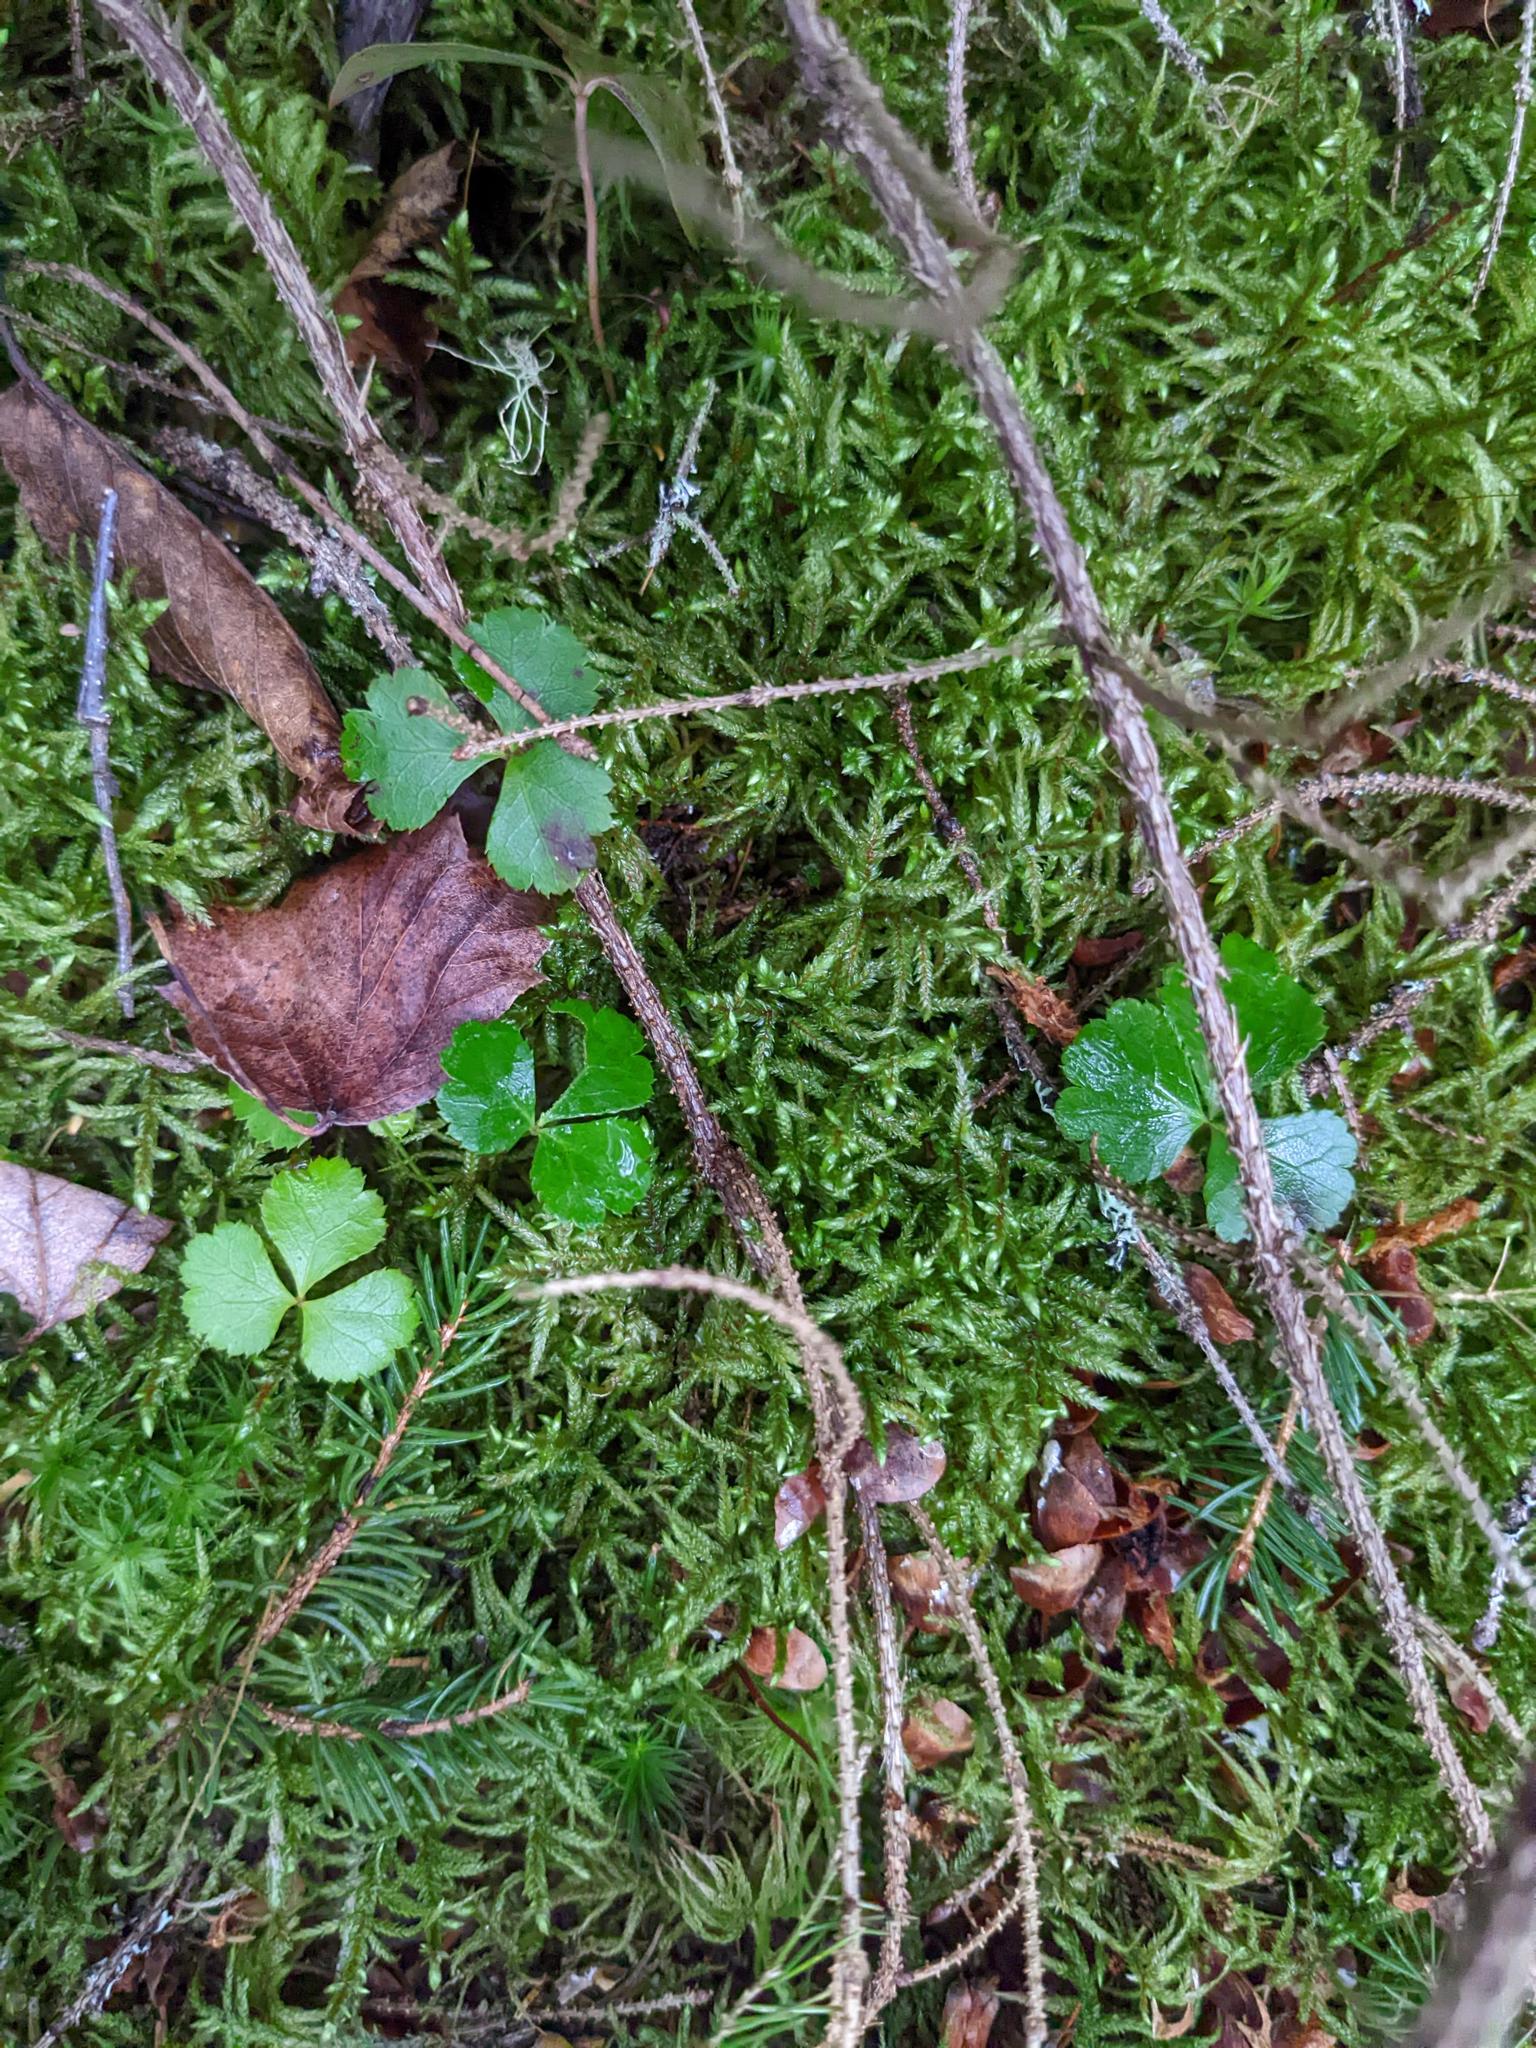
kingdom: Plantae
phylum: Tracheophyta
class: Magnoliopsida
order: Ranunculales
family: Ranunculaceae
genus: Coptis
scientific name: Coptis trifolia
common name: Canker-root
